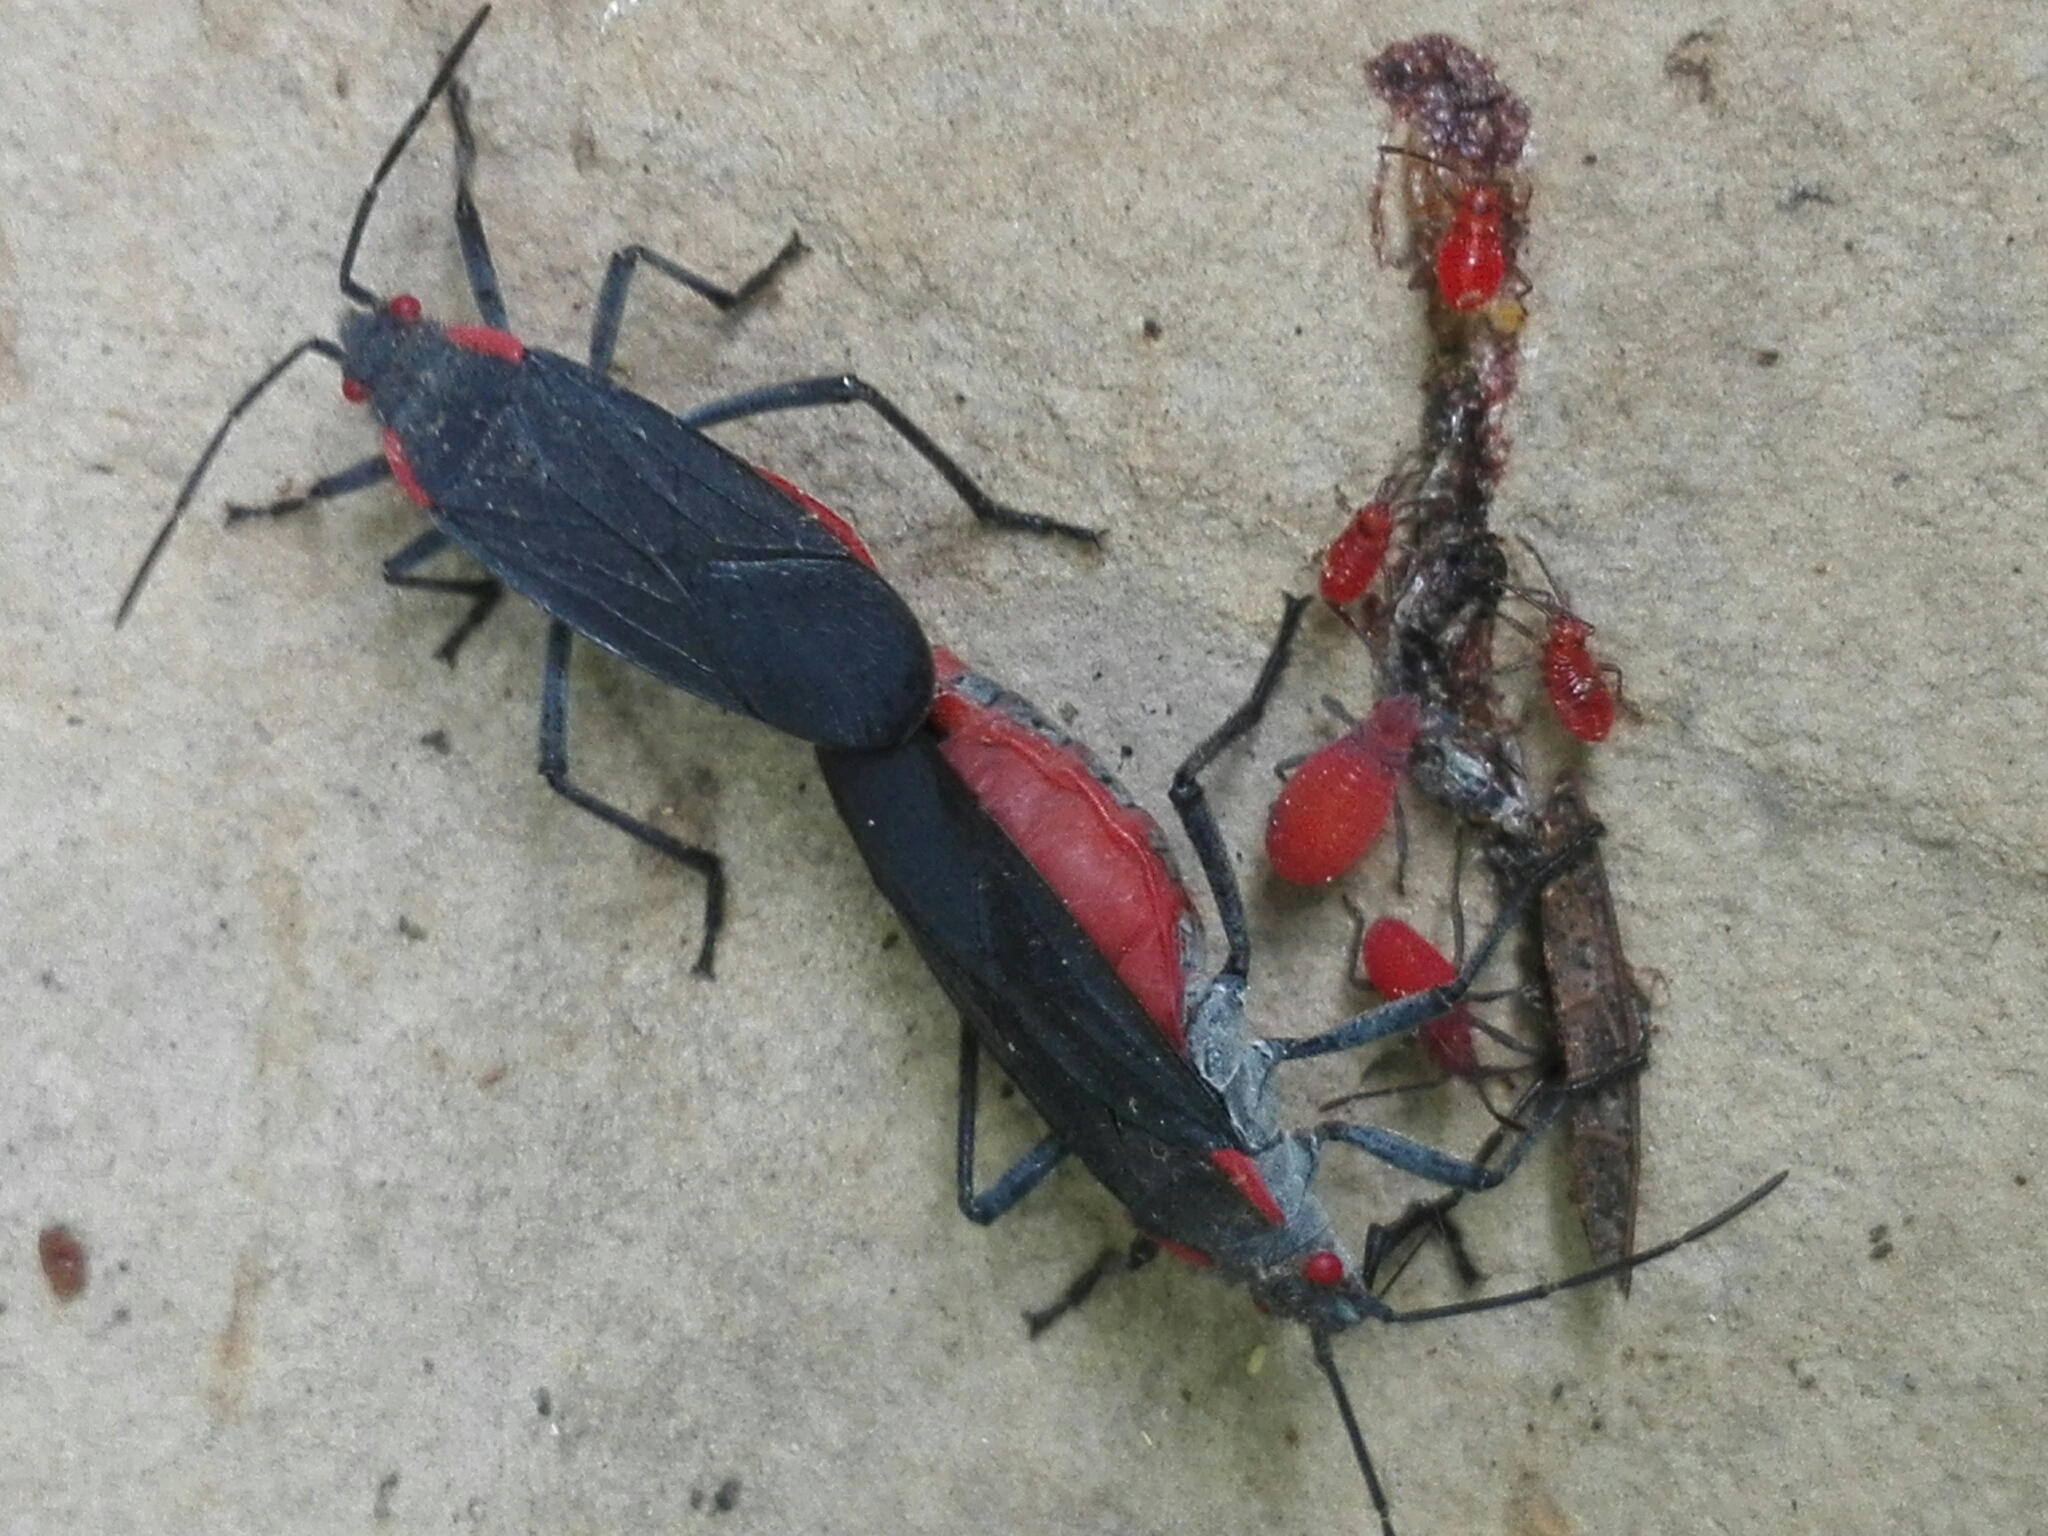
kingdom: Animalia
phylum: Arthropoda
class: Insecta
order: Hemiptera
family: Rhopalidae
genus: Jadera
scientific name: Jadera haematoloma
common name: Red-shouldered bug
